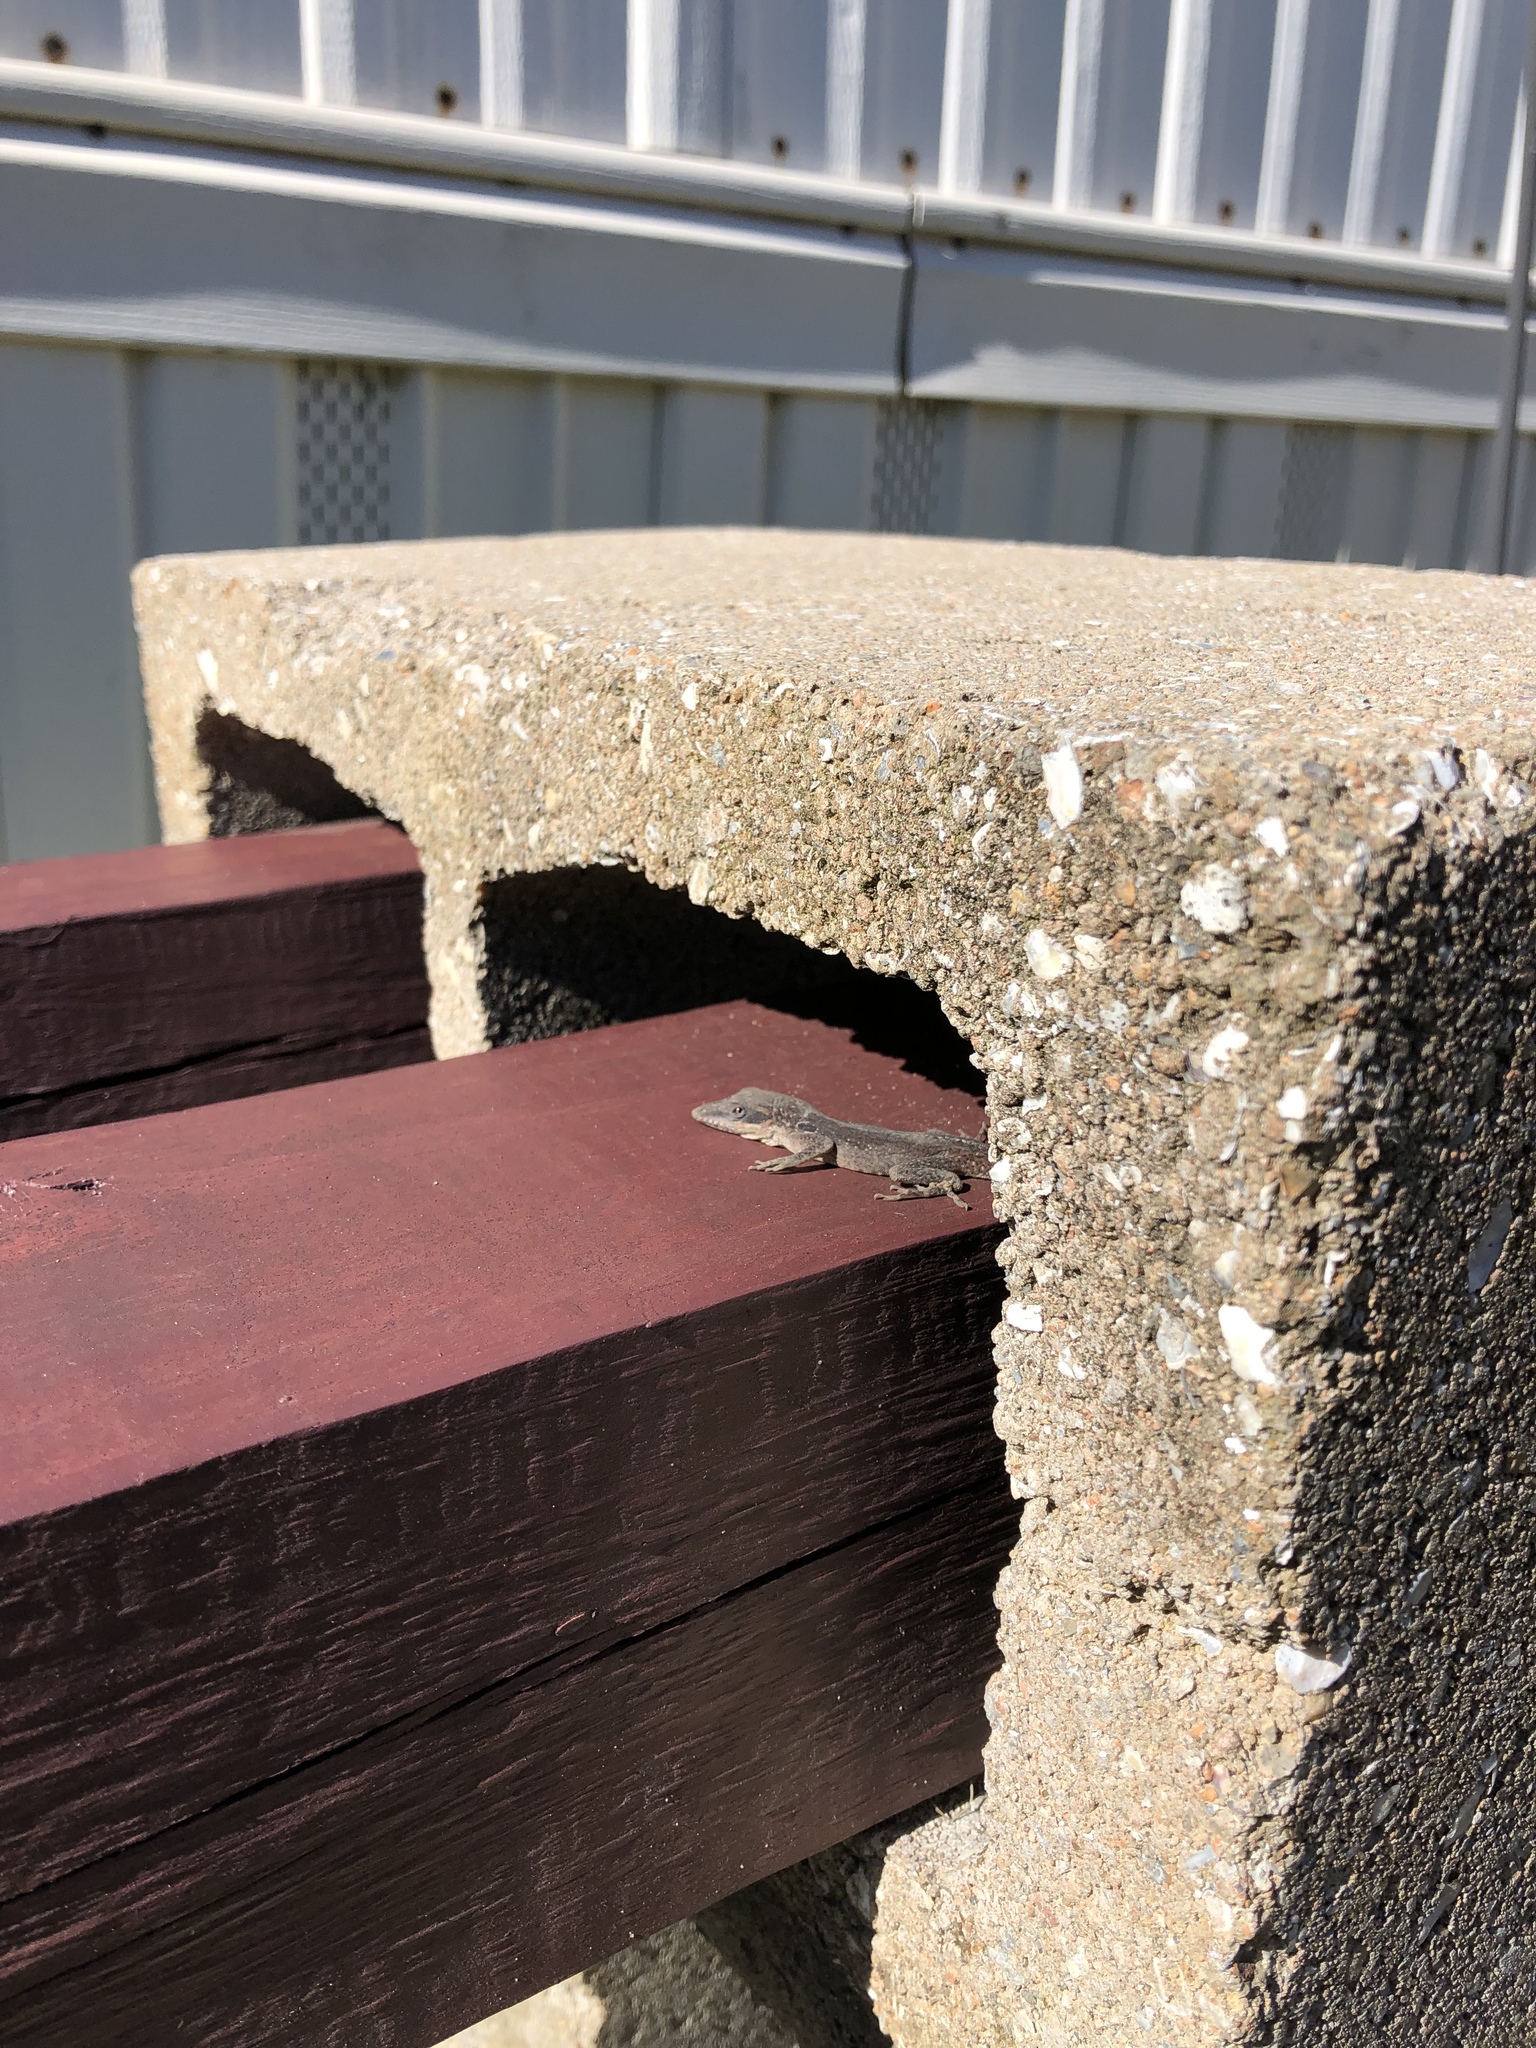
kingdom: Animalia
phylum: Chordata
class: Squamata
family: Dactyloidae
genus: Anolis
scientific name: Anolis carolinensis
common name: Green anole
